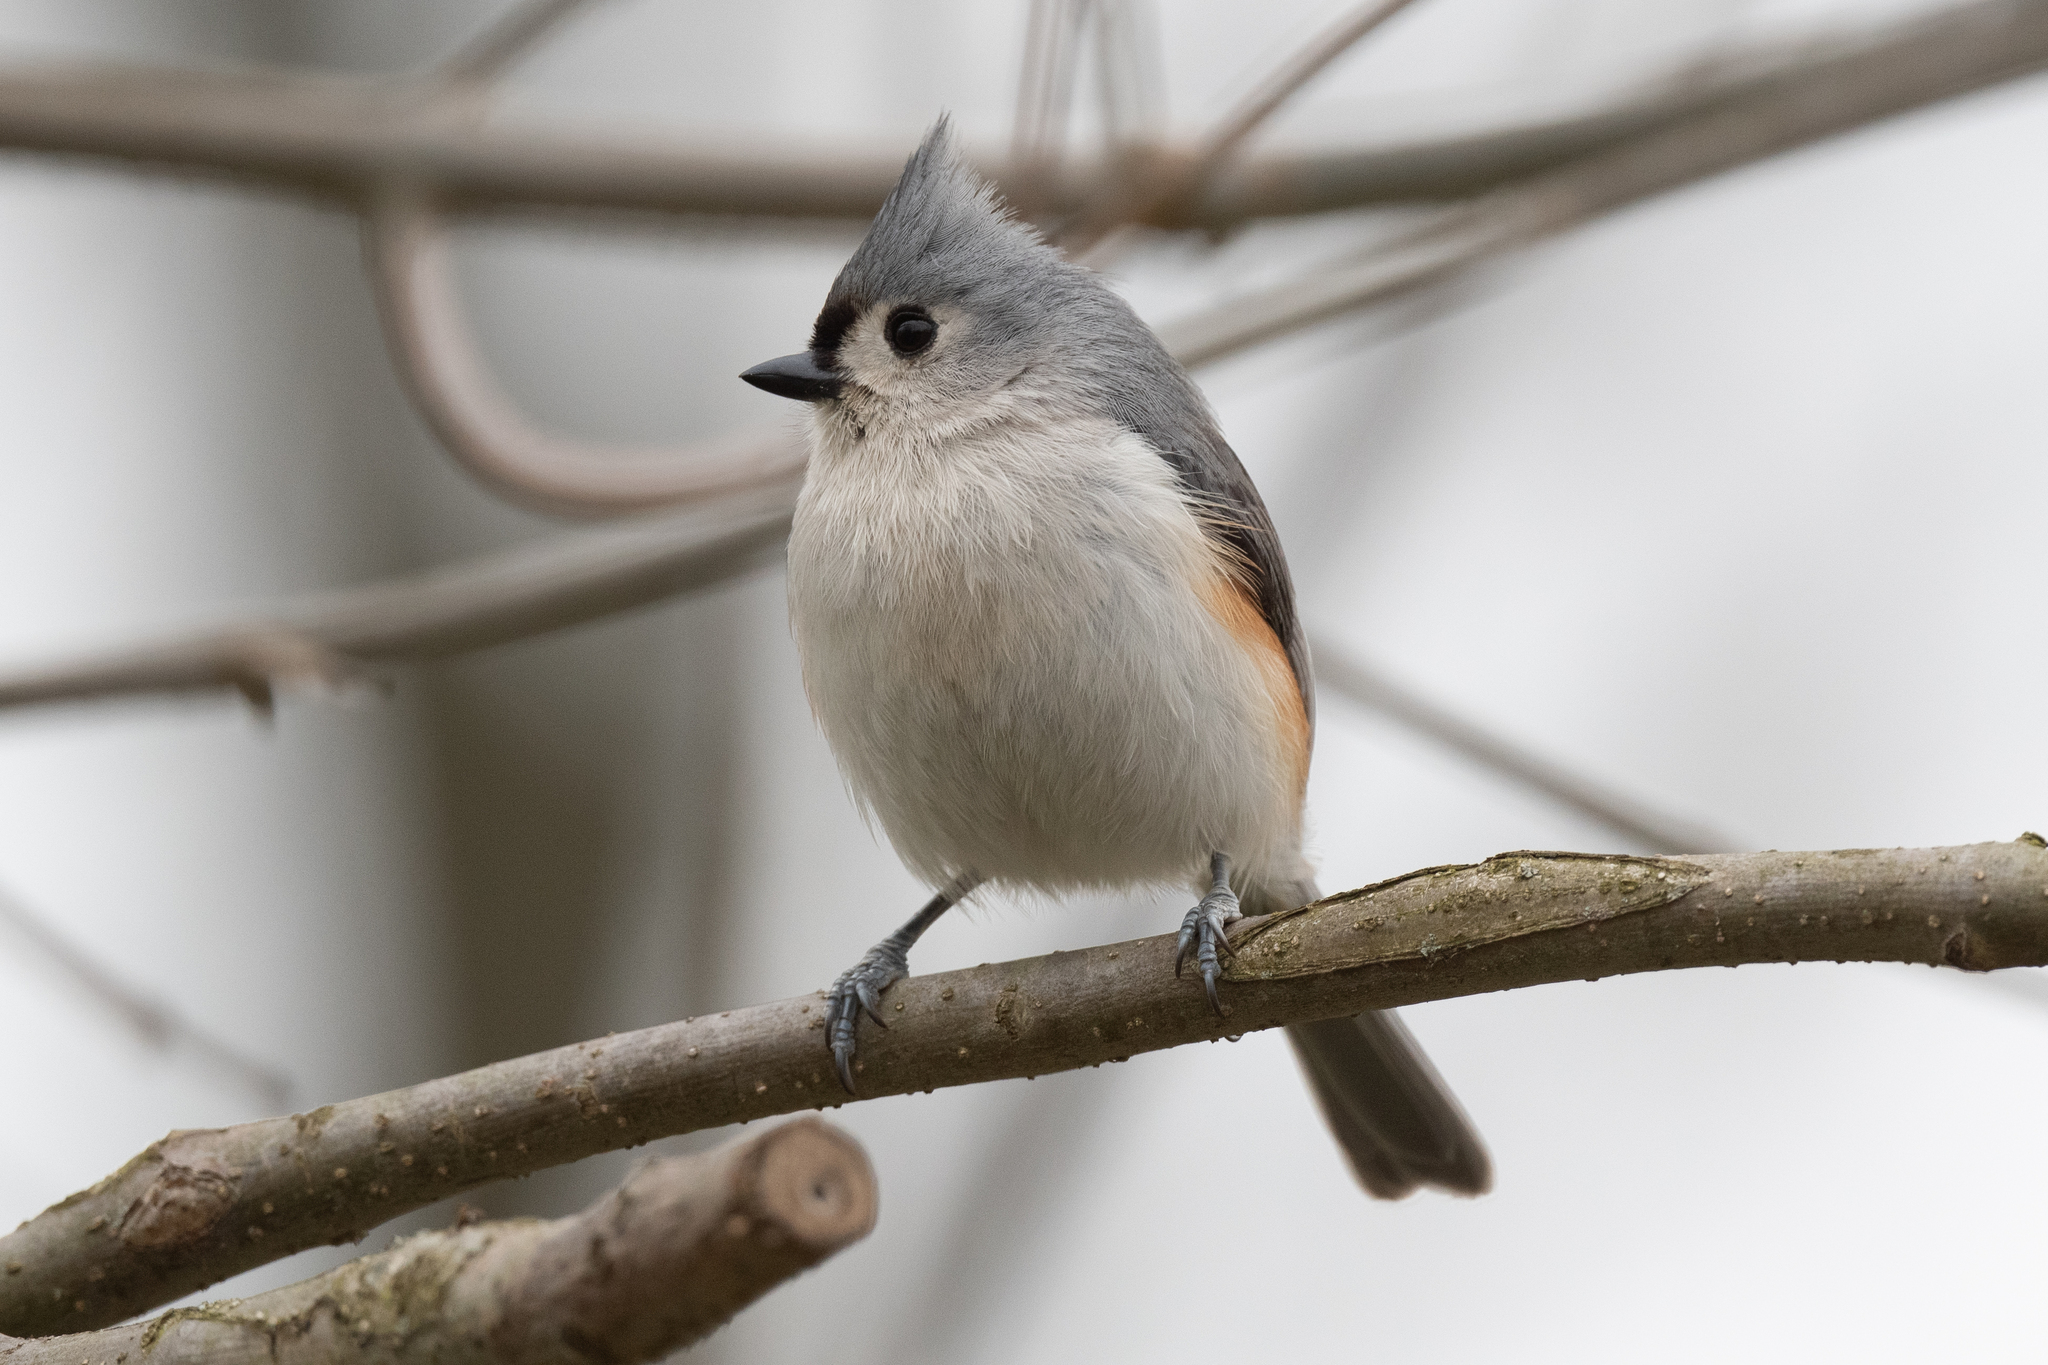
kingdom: Animalia
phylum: Chordata
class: Aves
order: Passeriformes
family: Paridae
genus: Baeolophus
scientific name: Baeolophus bicolor
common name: Tufted titmouse
